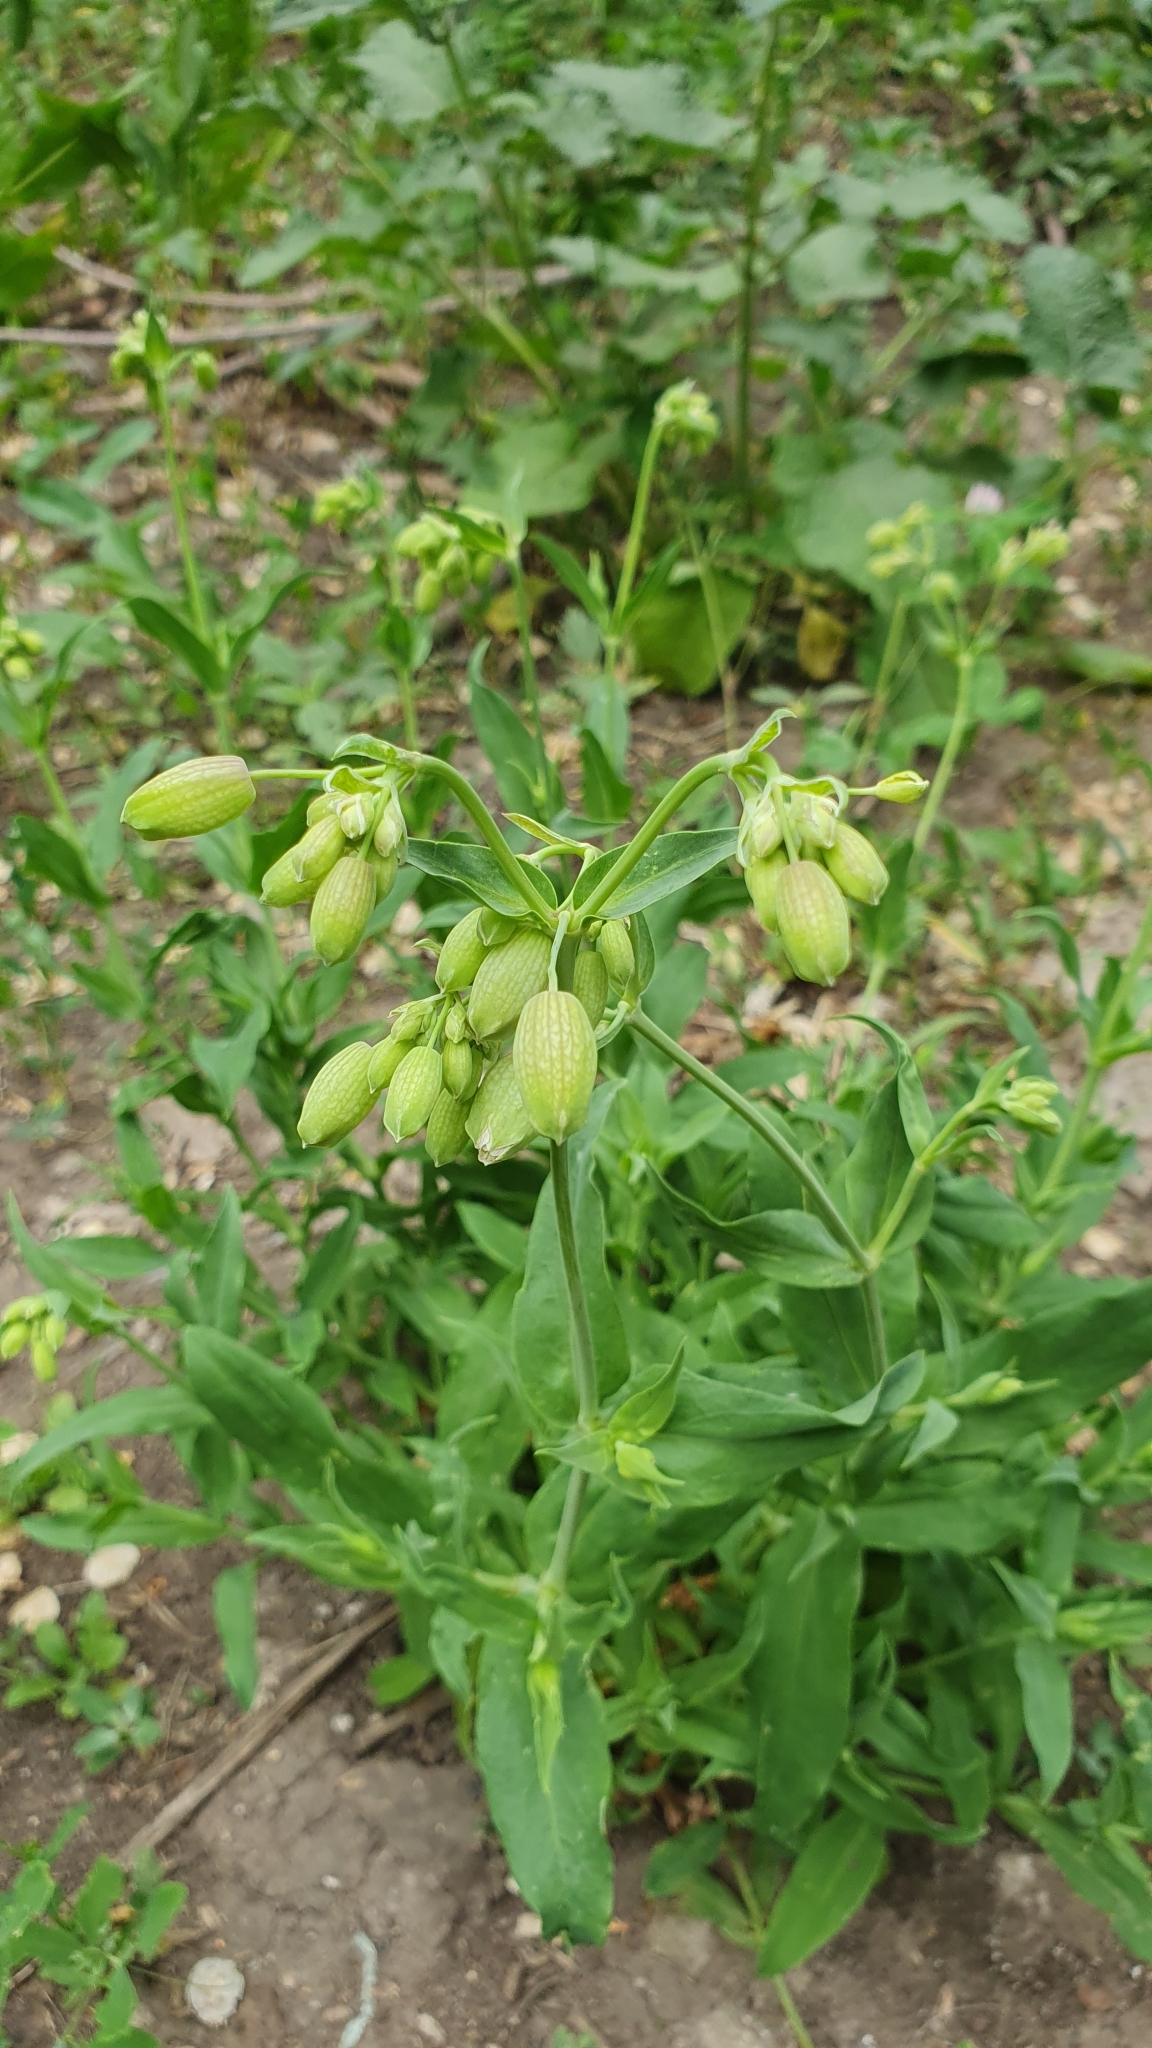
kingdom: Plantae
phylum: Tracheophyta
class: Magnoliopsida
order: Caryophyllales
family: Caryophyllaceae
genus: Silene
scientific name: Silene vulgaris
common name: Bladder campion
